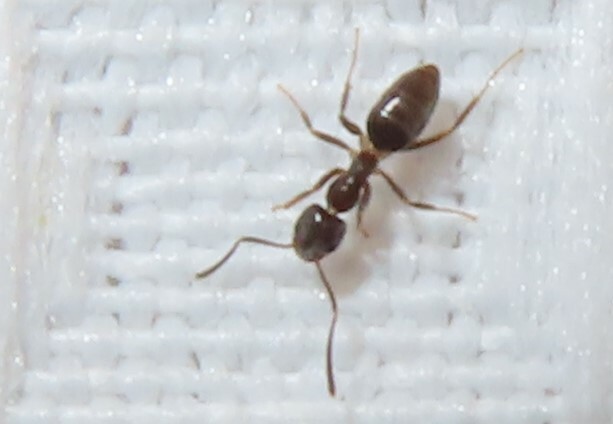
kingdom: Animalia
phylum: Arthropoda
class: Insecta
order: Hymenoptera
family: Formicidae
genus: Tapinoma
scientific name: Tapinoma sessile
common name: Odorous house ant
